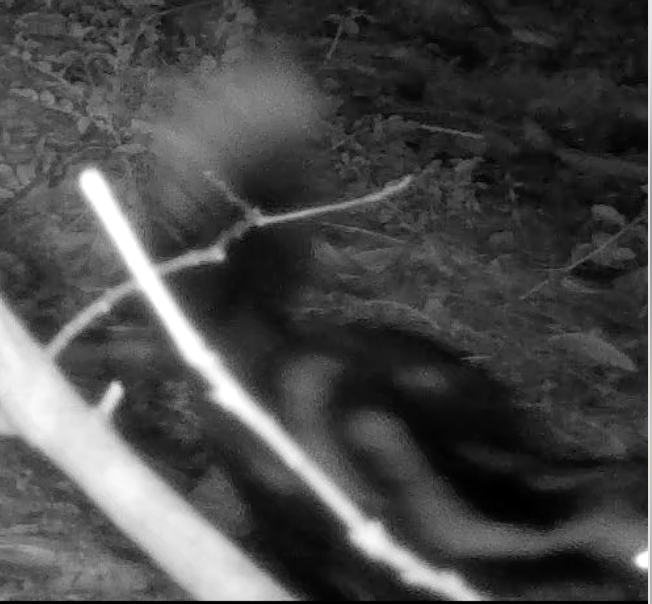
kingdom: Animalia
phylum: Chordata
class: Mammalia
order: Carnivora
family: Mephitidae
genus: Spilogale
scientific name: Spilogale gracilis
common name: Western spotted skunk
